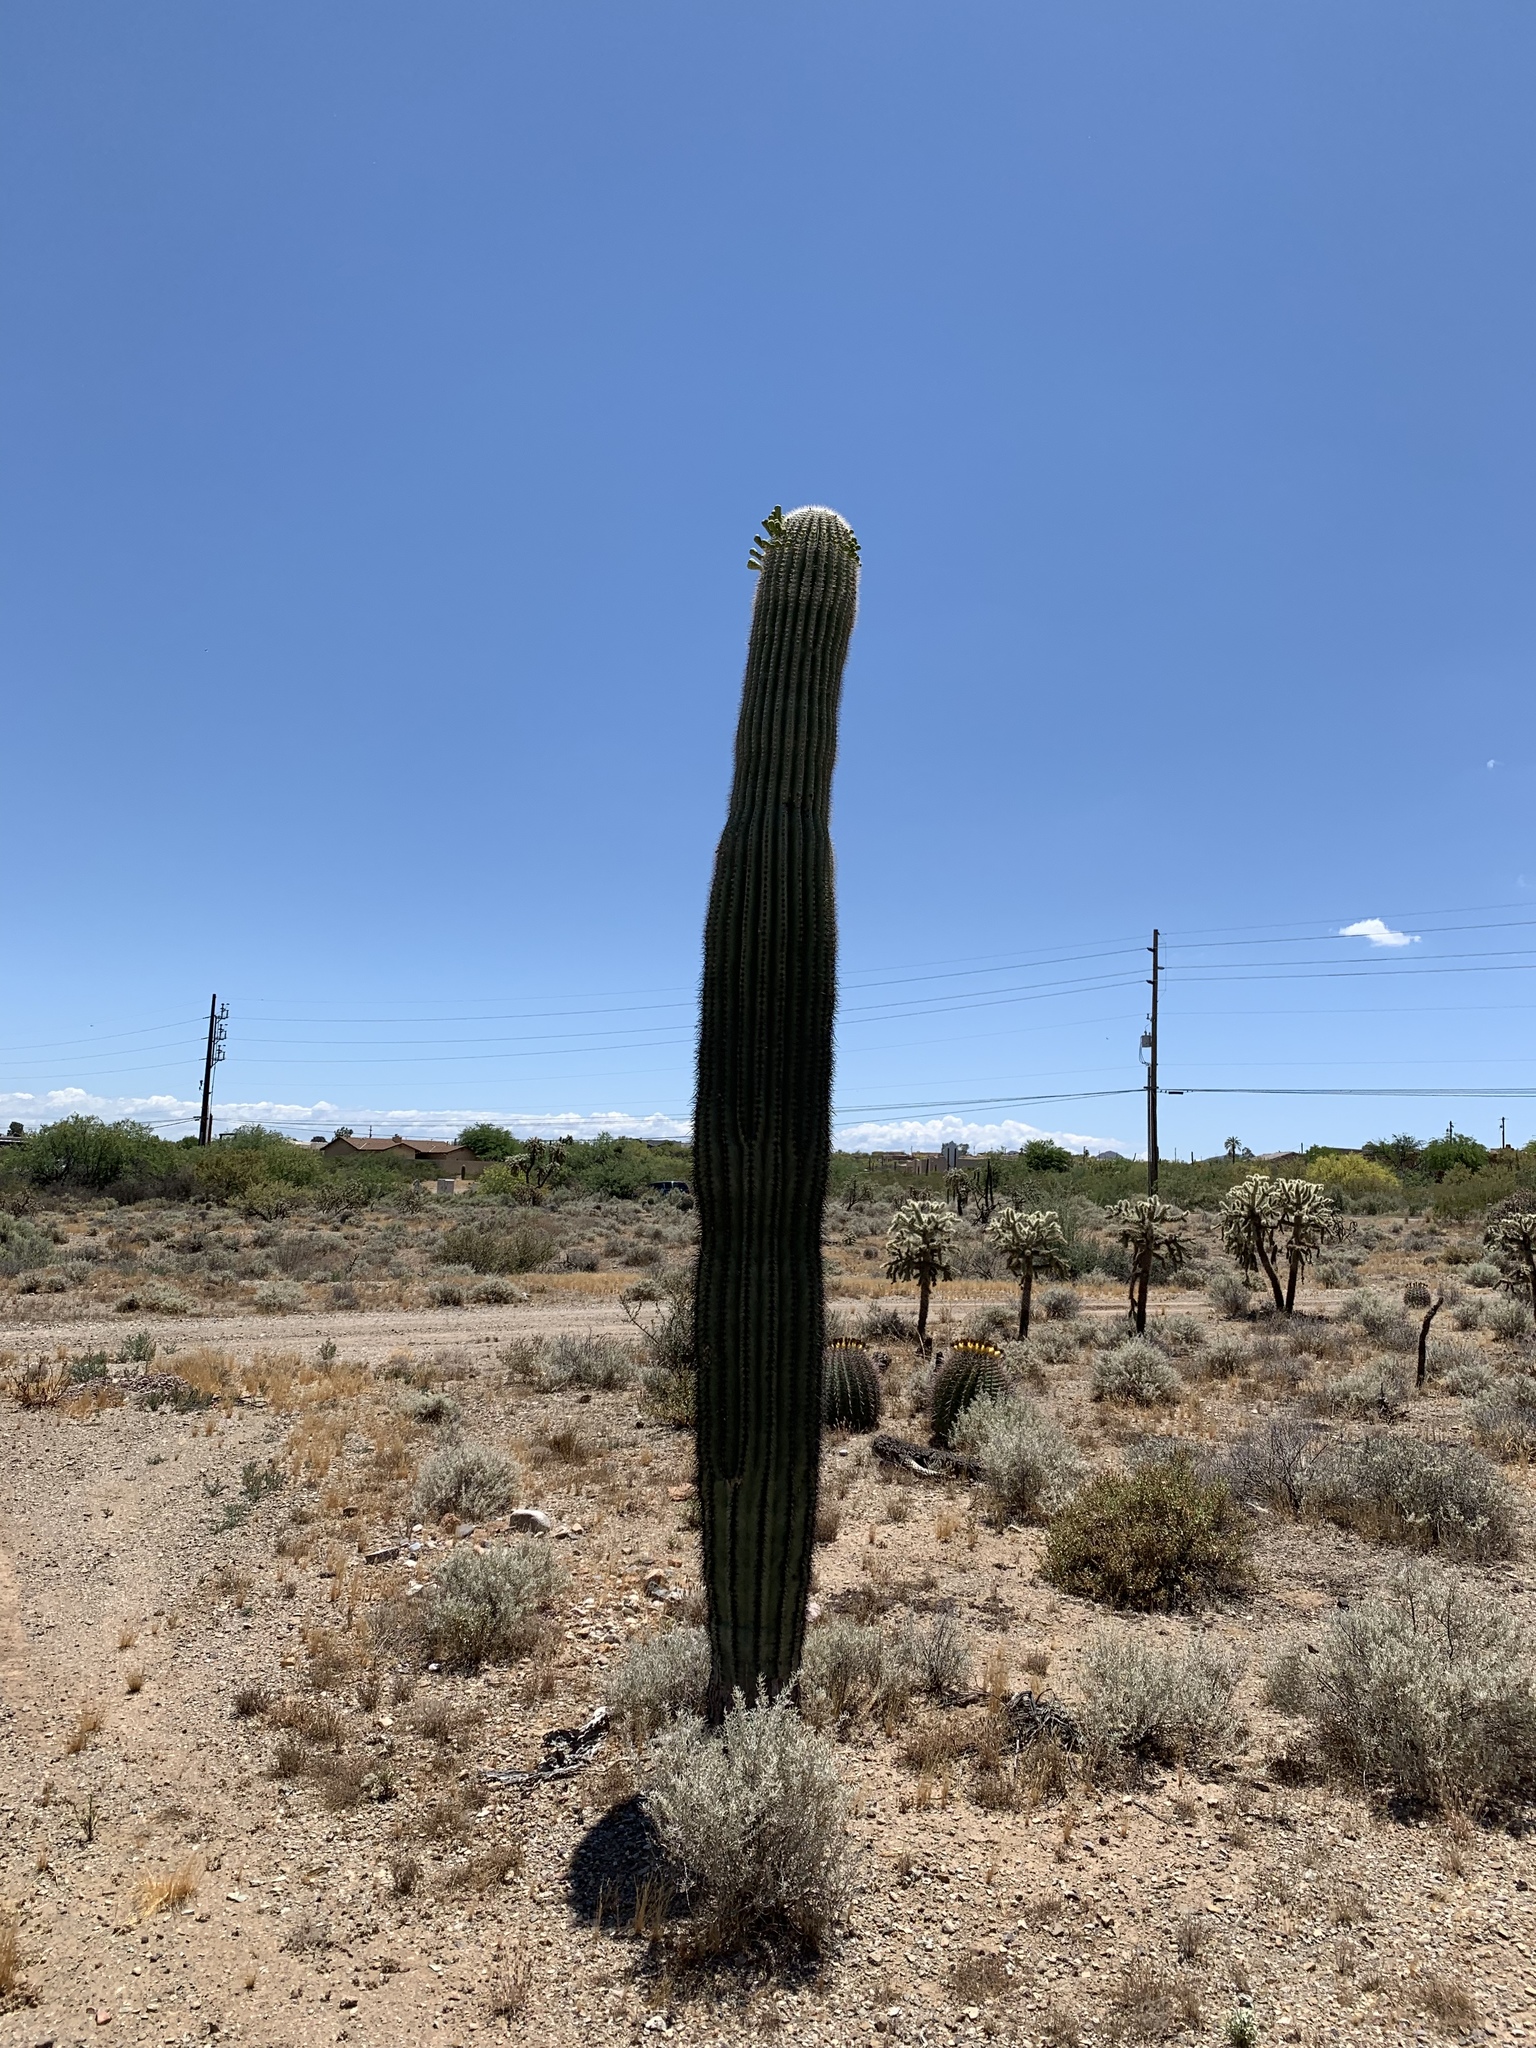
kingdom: Plantae
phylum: Tracheophyta
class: Magnoliopsida
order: Caryophyllales
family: Cactaceae
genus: Carnegiea
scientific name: Carnegiea gigantea
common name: Saguaro
